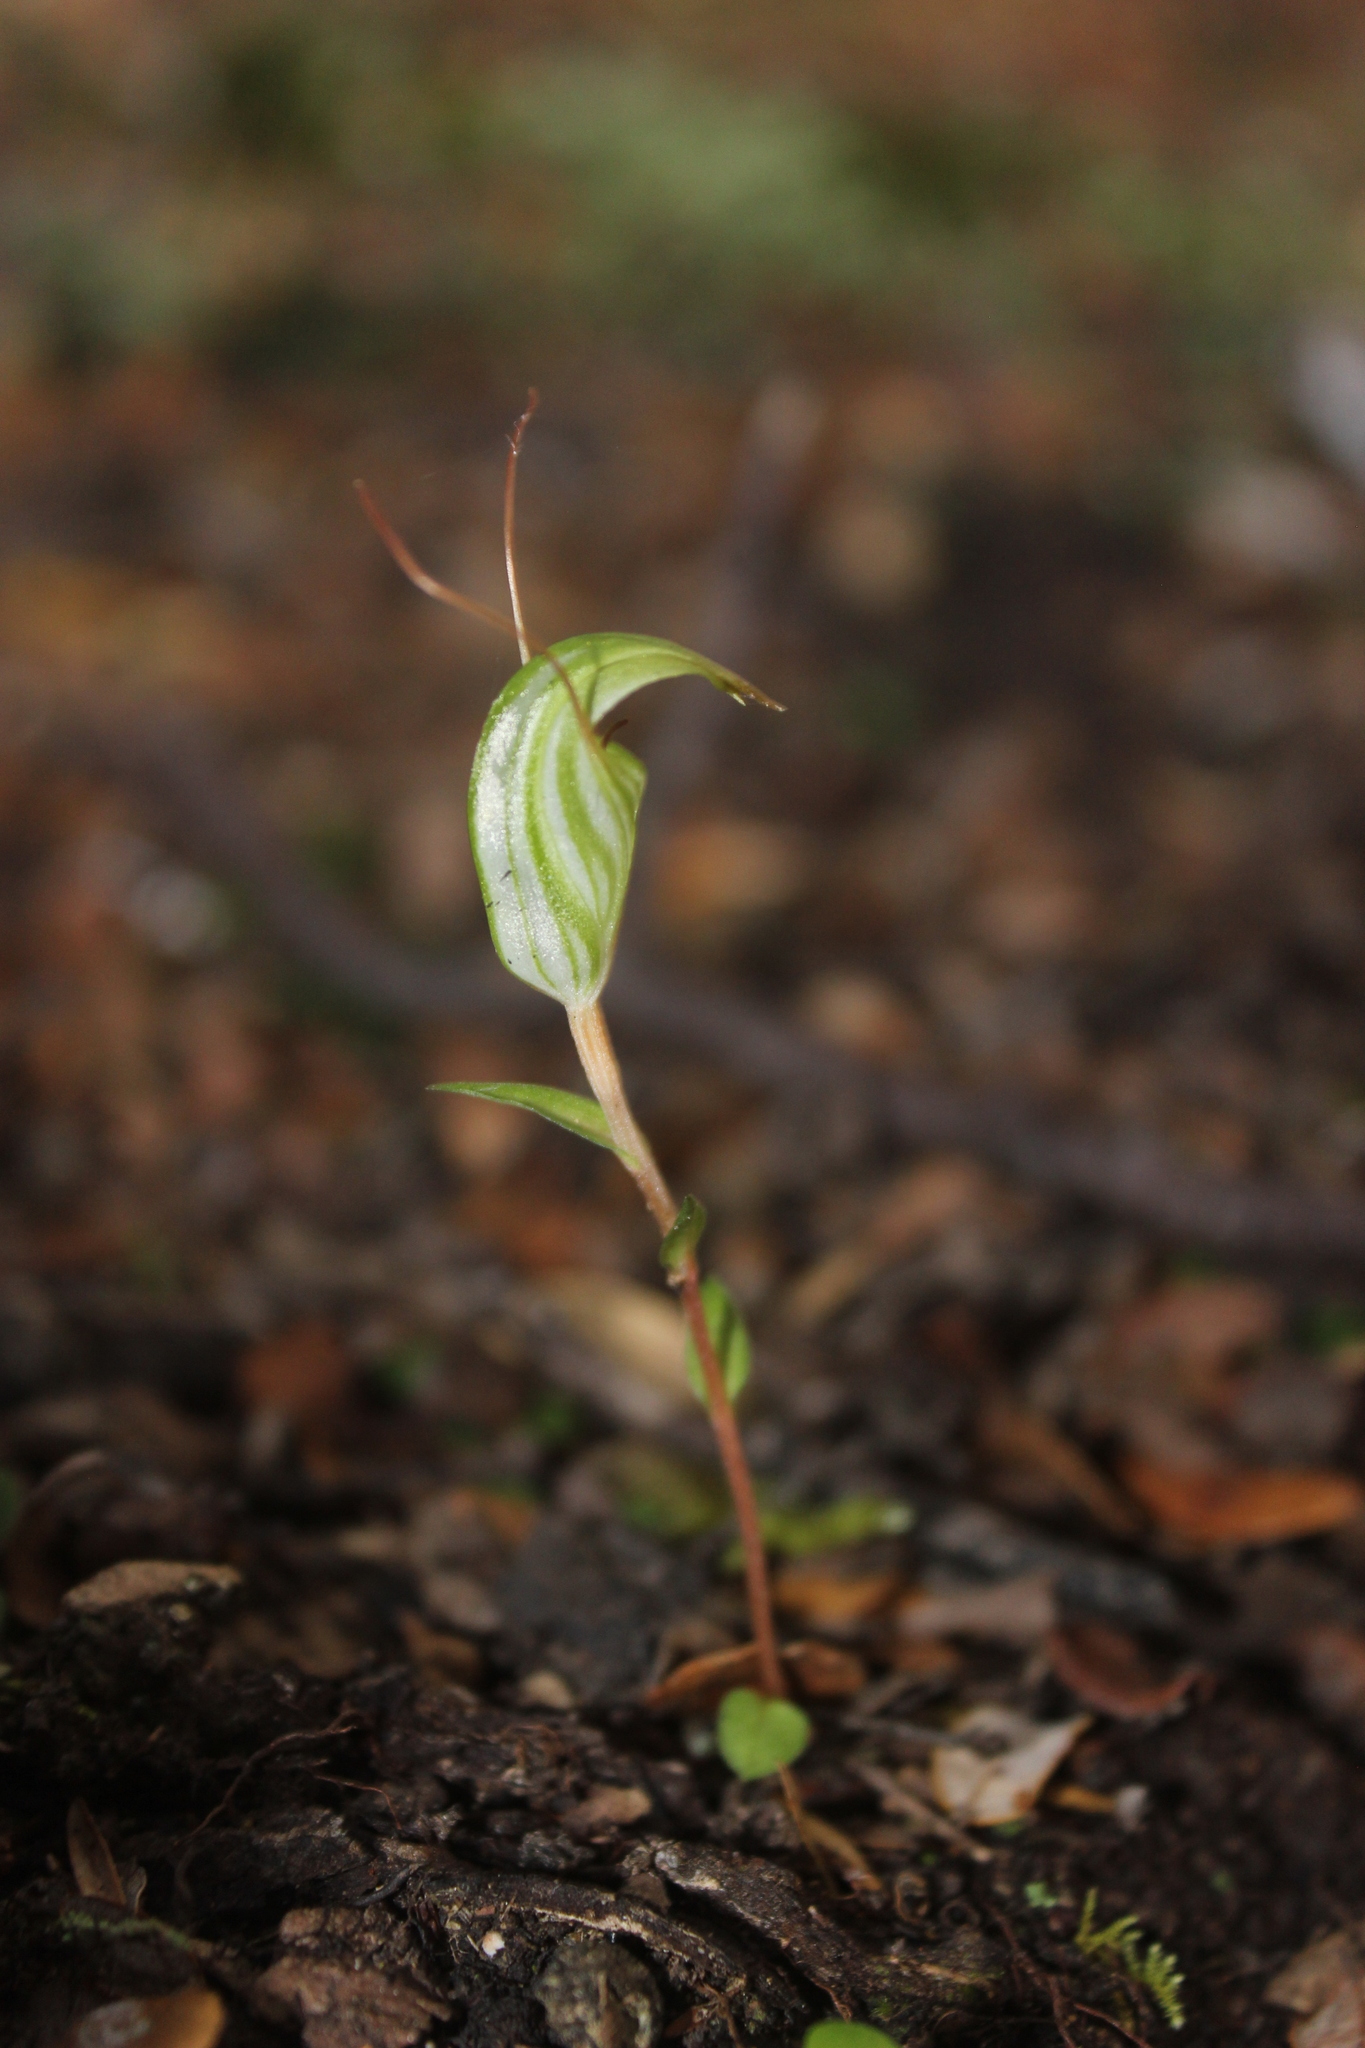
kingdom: Plantae
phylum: Tracheophyta
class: Liliopsida
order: Asparagales
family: Orchidaceae
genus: Pterostylis
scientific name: Pterostylis alobula
